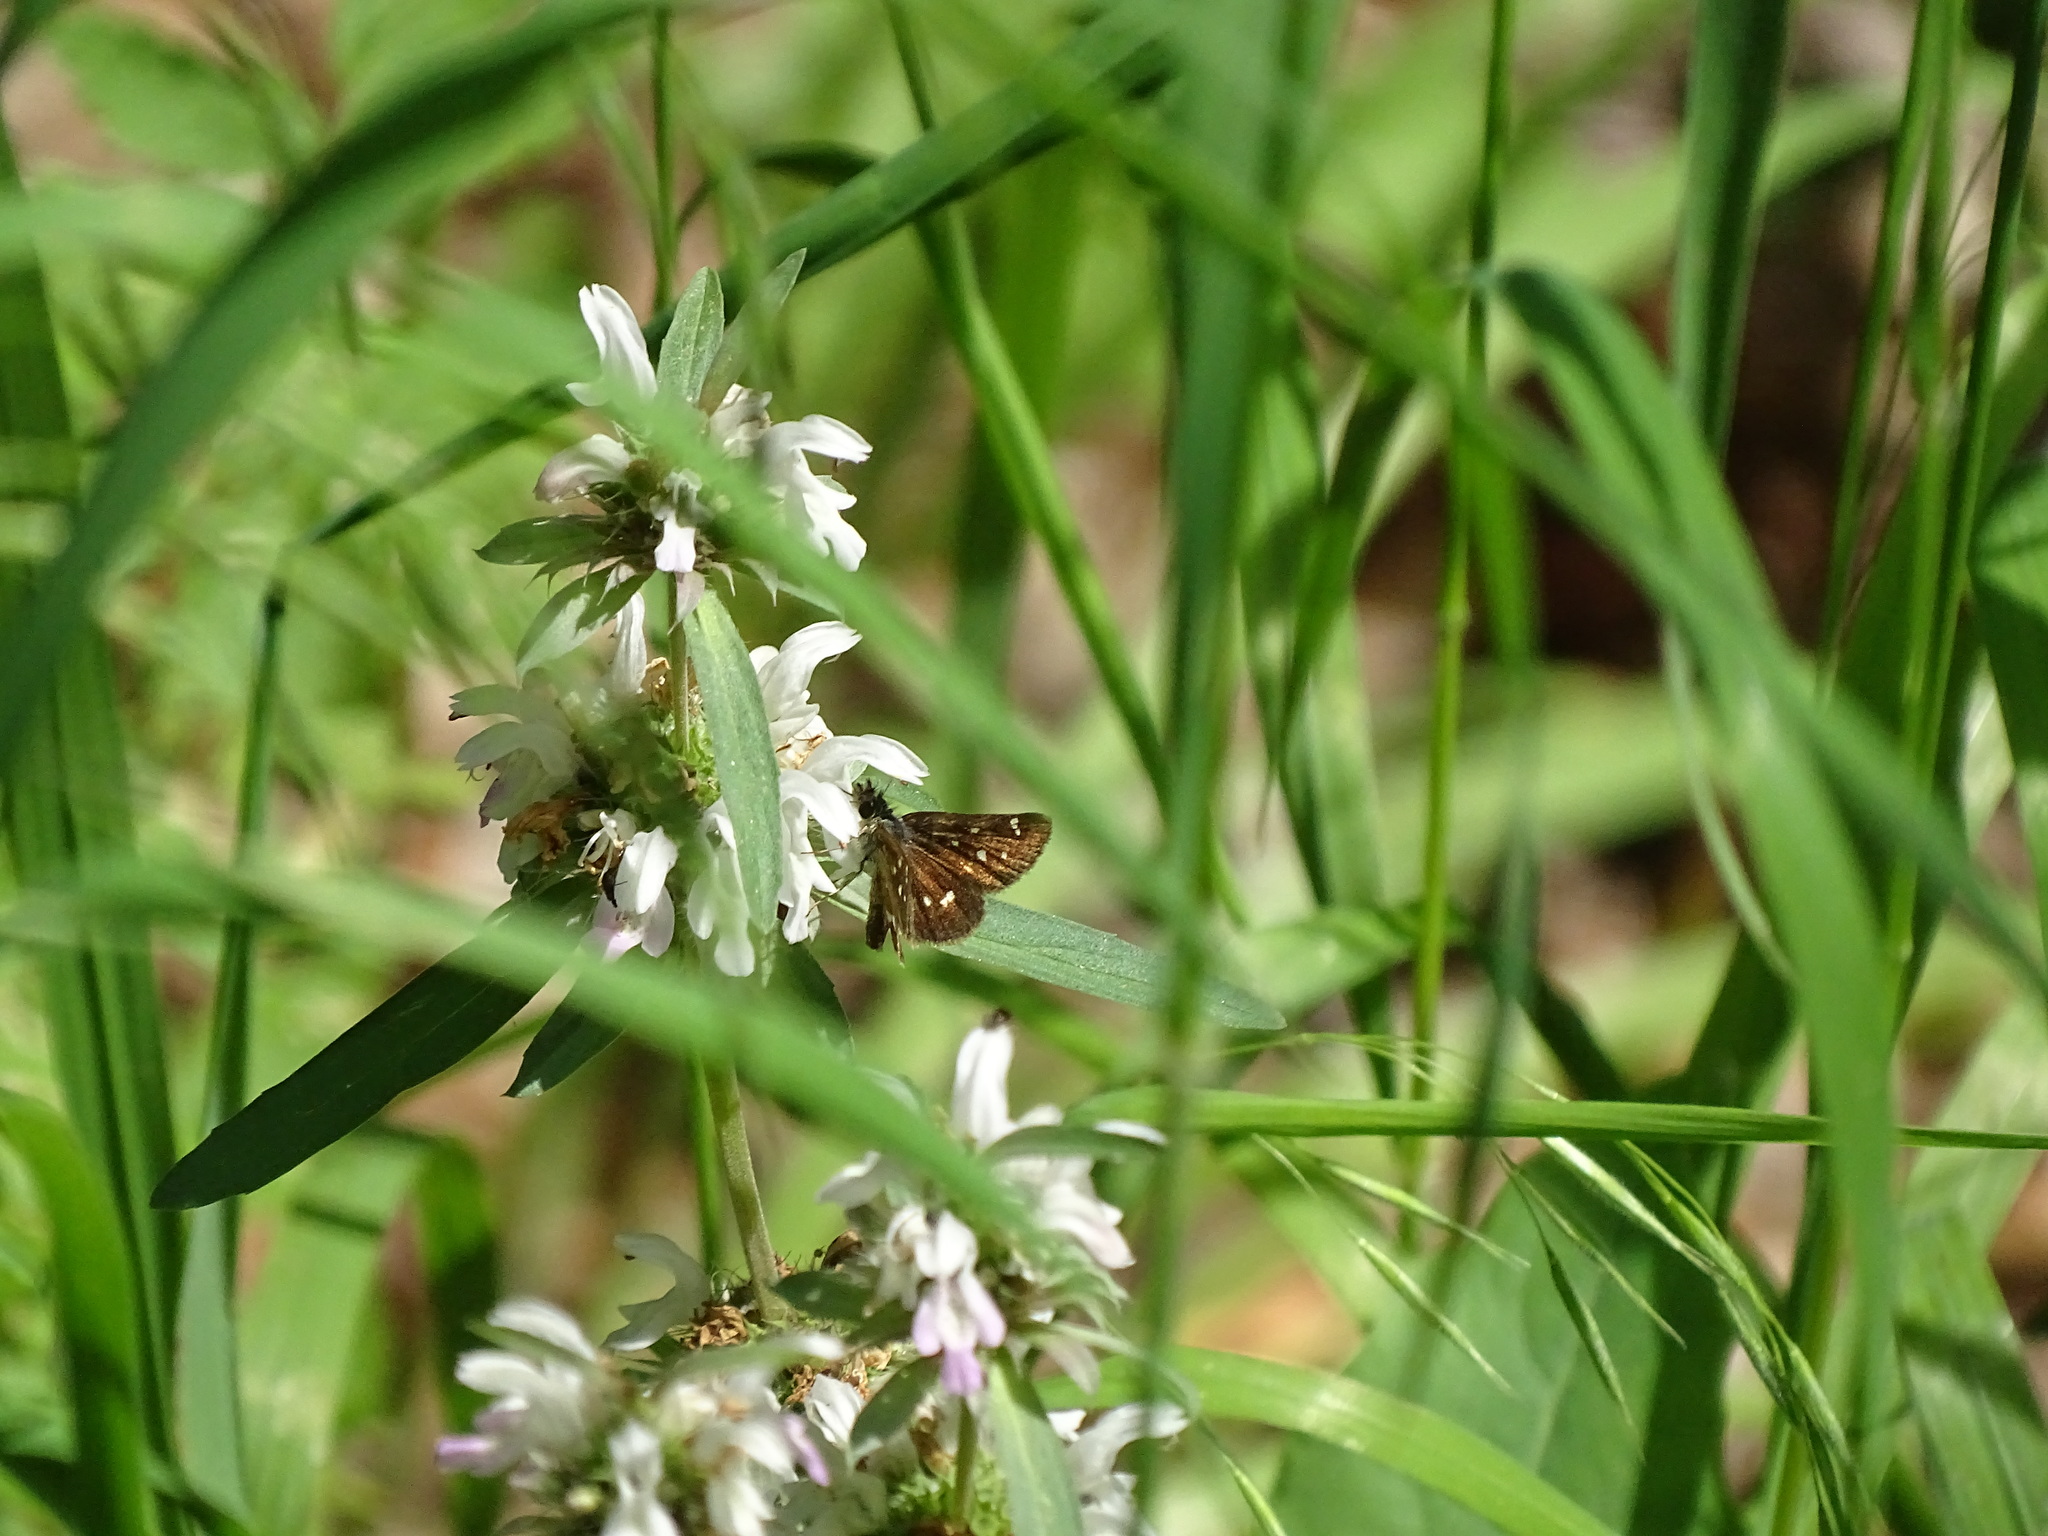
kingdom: Animalia
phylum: Arthropoda
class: Insecta
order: Lepidoptera
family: Hesperiidae
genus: Piruna
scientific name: Piruna polingii
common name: Four-spotted skipperling
